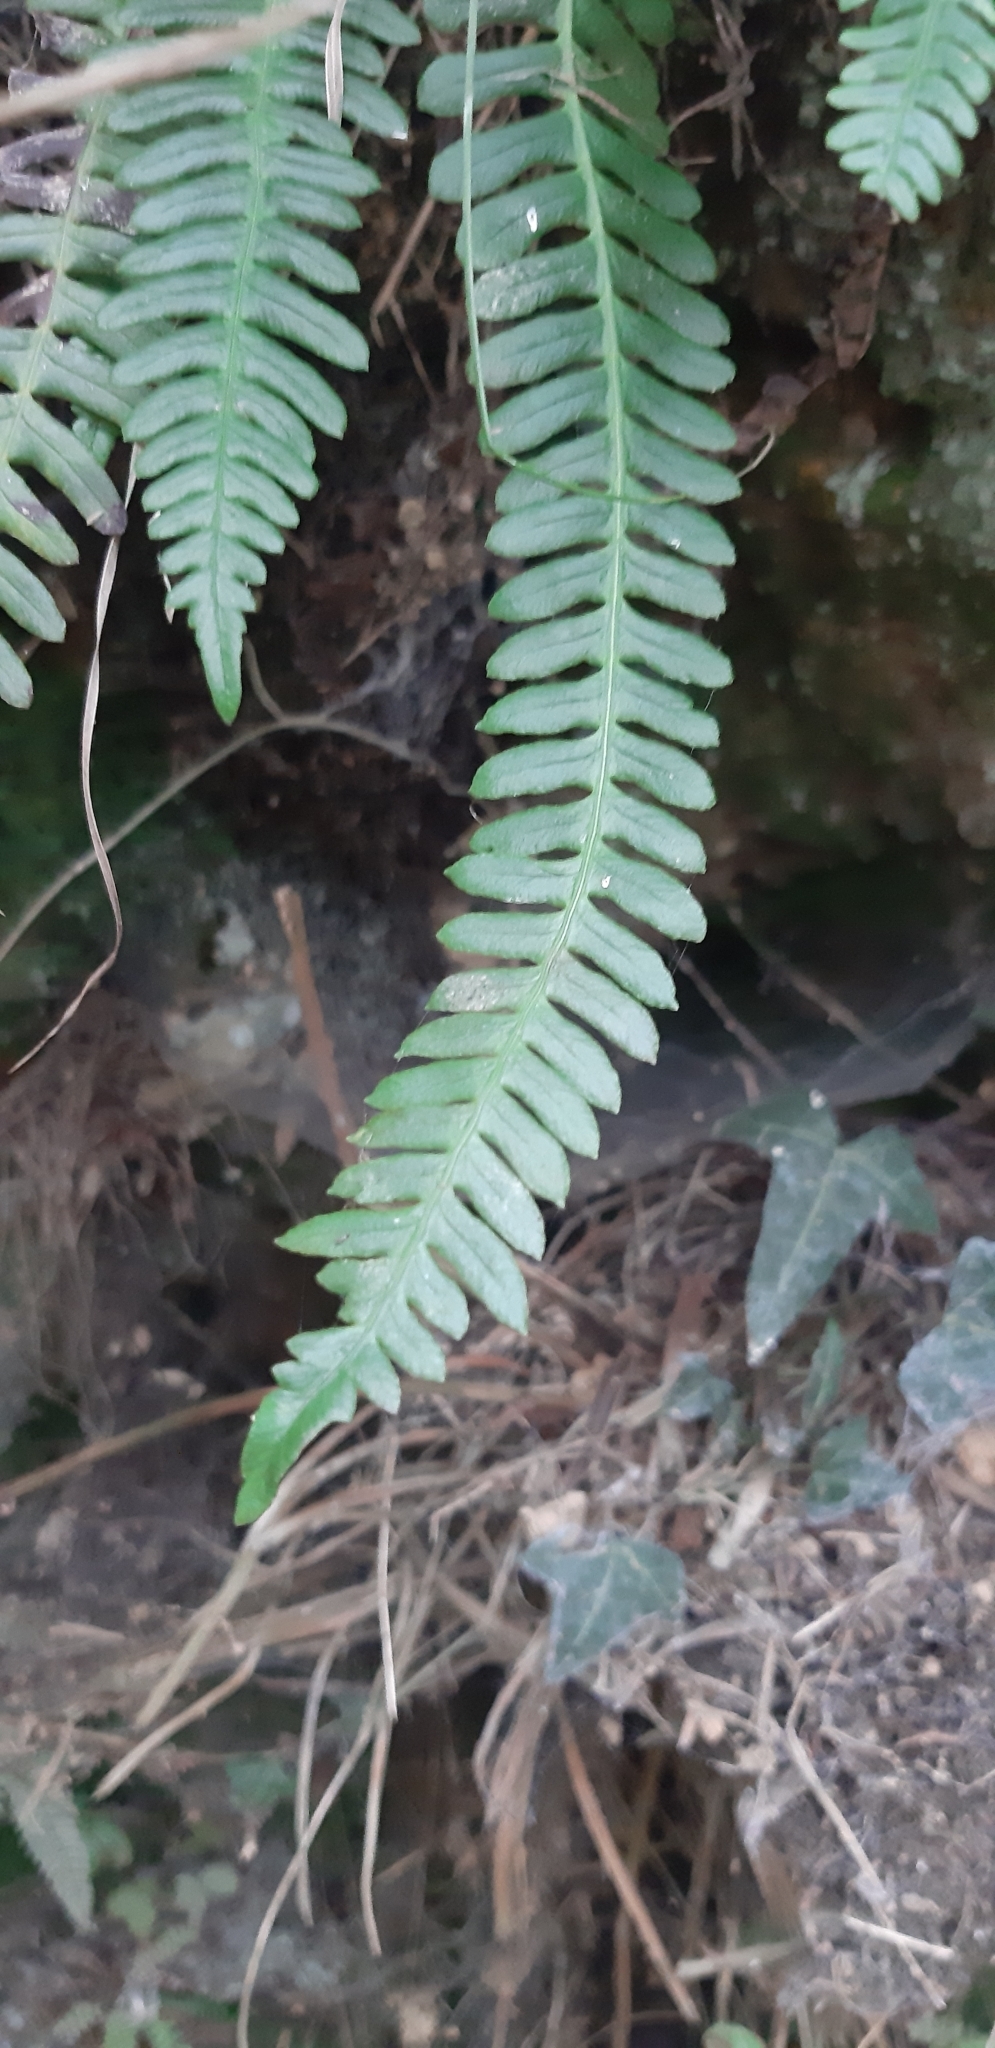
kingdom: Plantae
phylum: Tracheophyta
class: Polypodiopsida
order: Polypodiales
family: Blechnaceae
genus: Struthiopteris
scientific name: Struthiopteris spicant
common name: Deer fern
